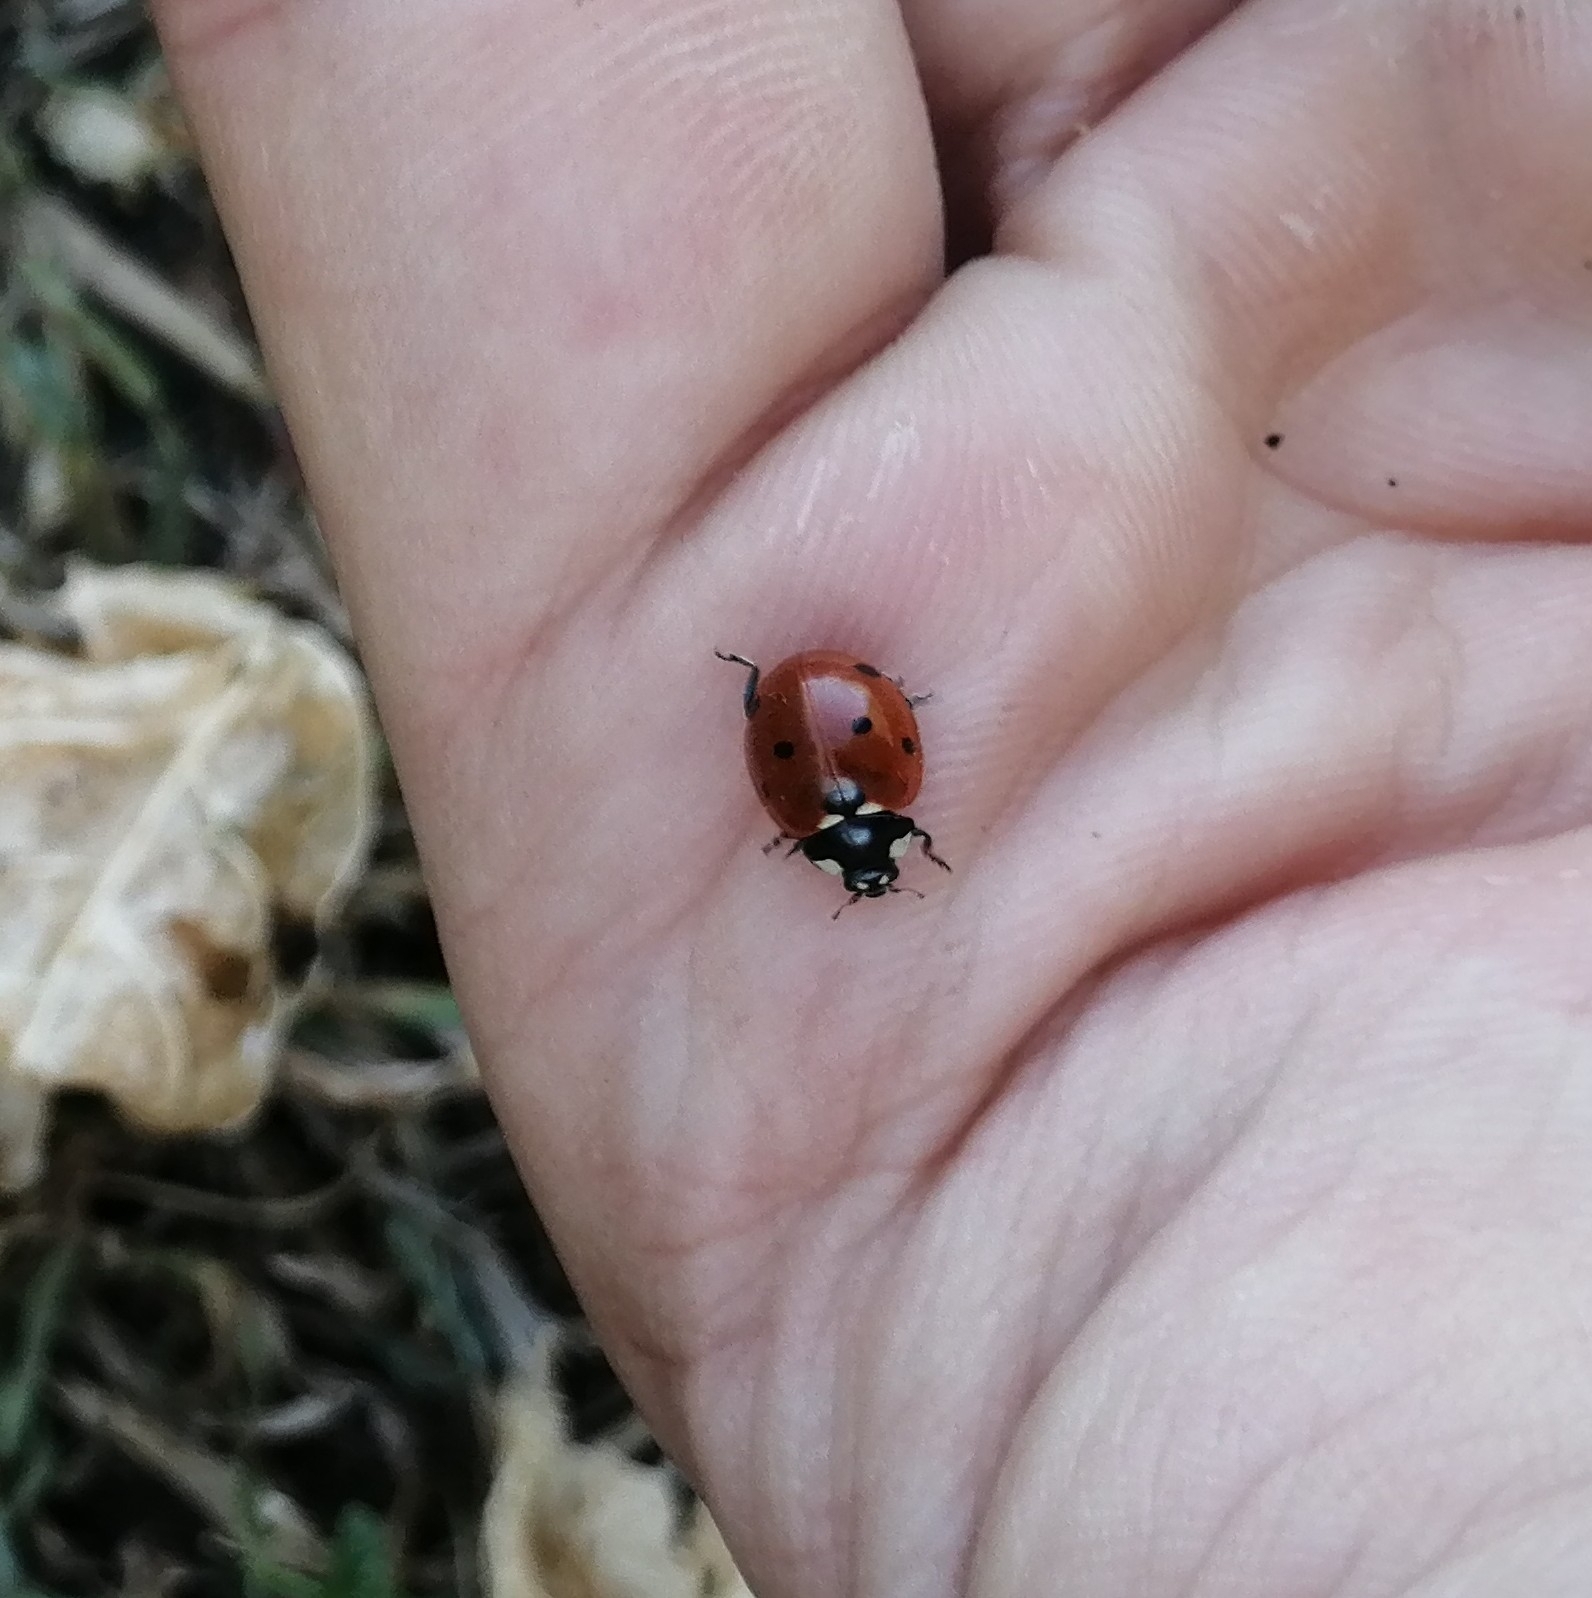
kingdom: Animalia
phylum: Arthropoda
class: Insecta
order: Coleoptera
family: Coccinellidae
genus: Coccinella
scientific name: Coccinella septempunctata
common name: Sevenspotted lady beetle
